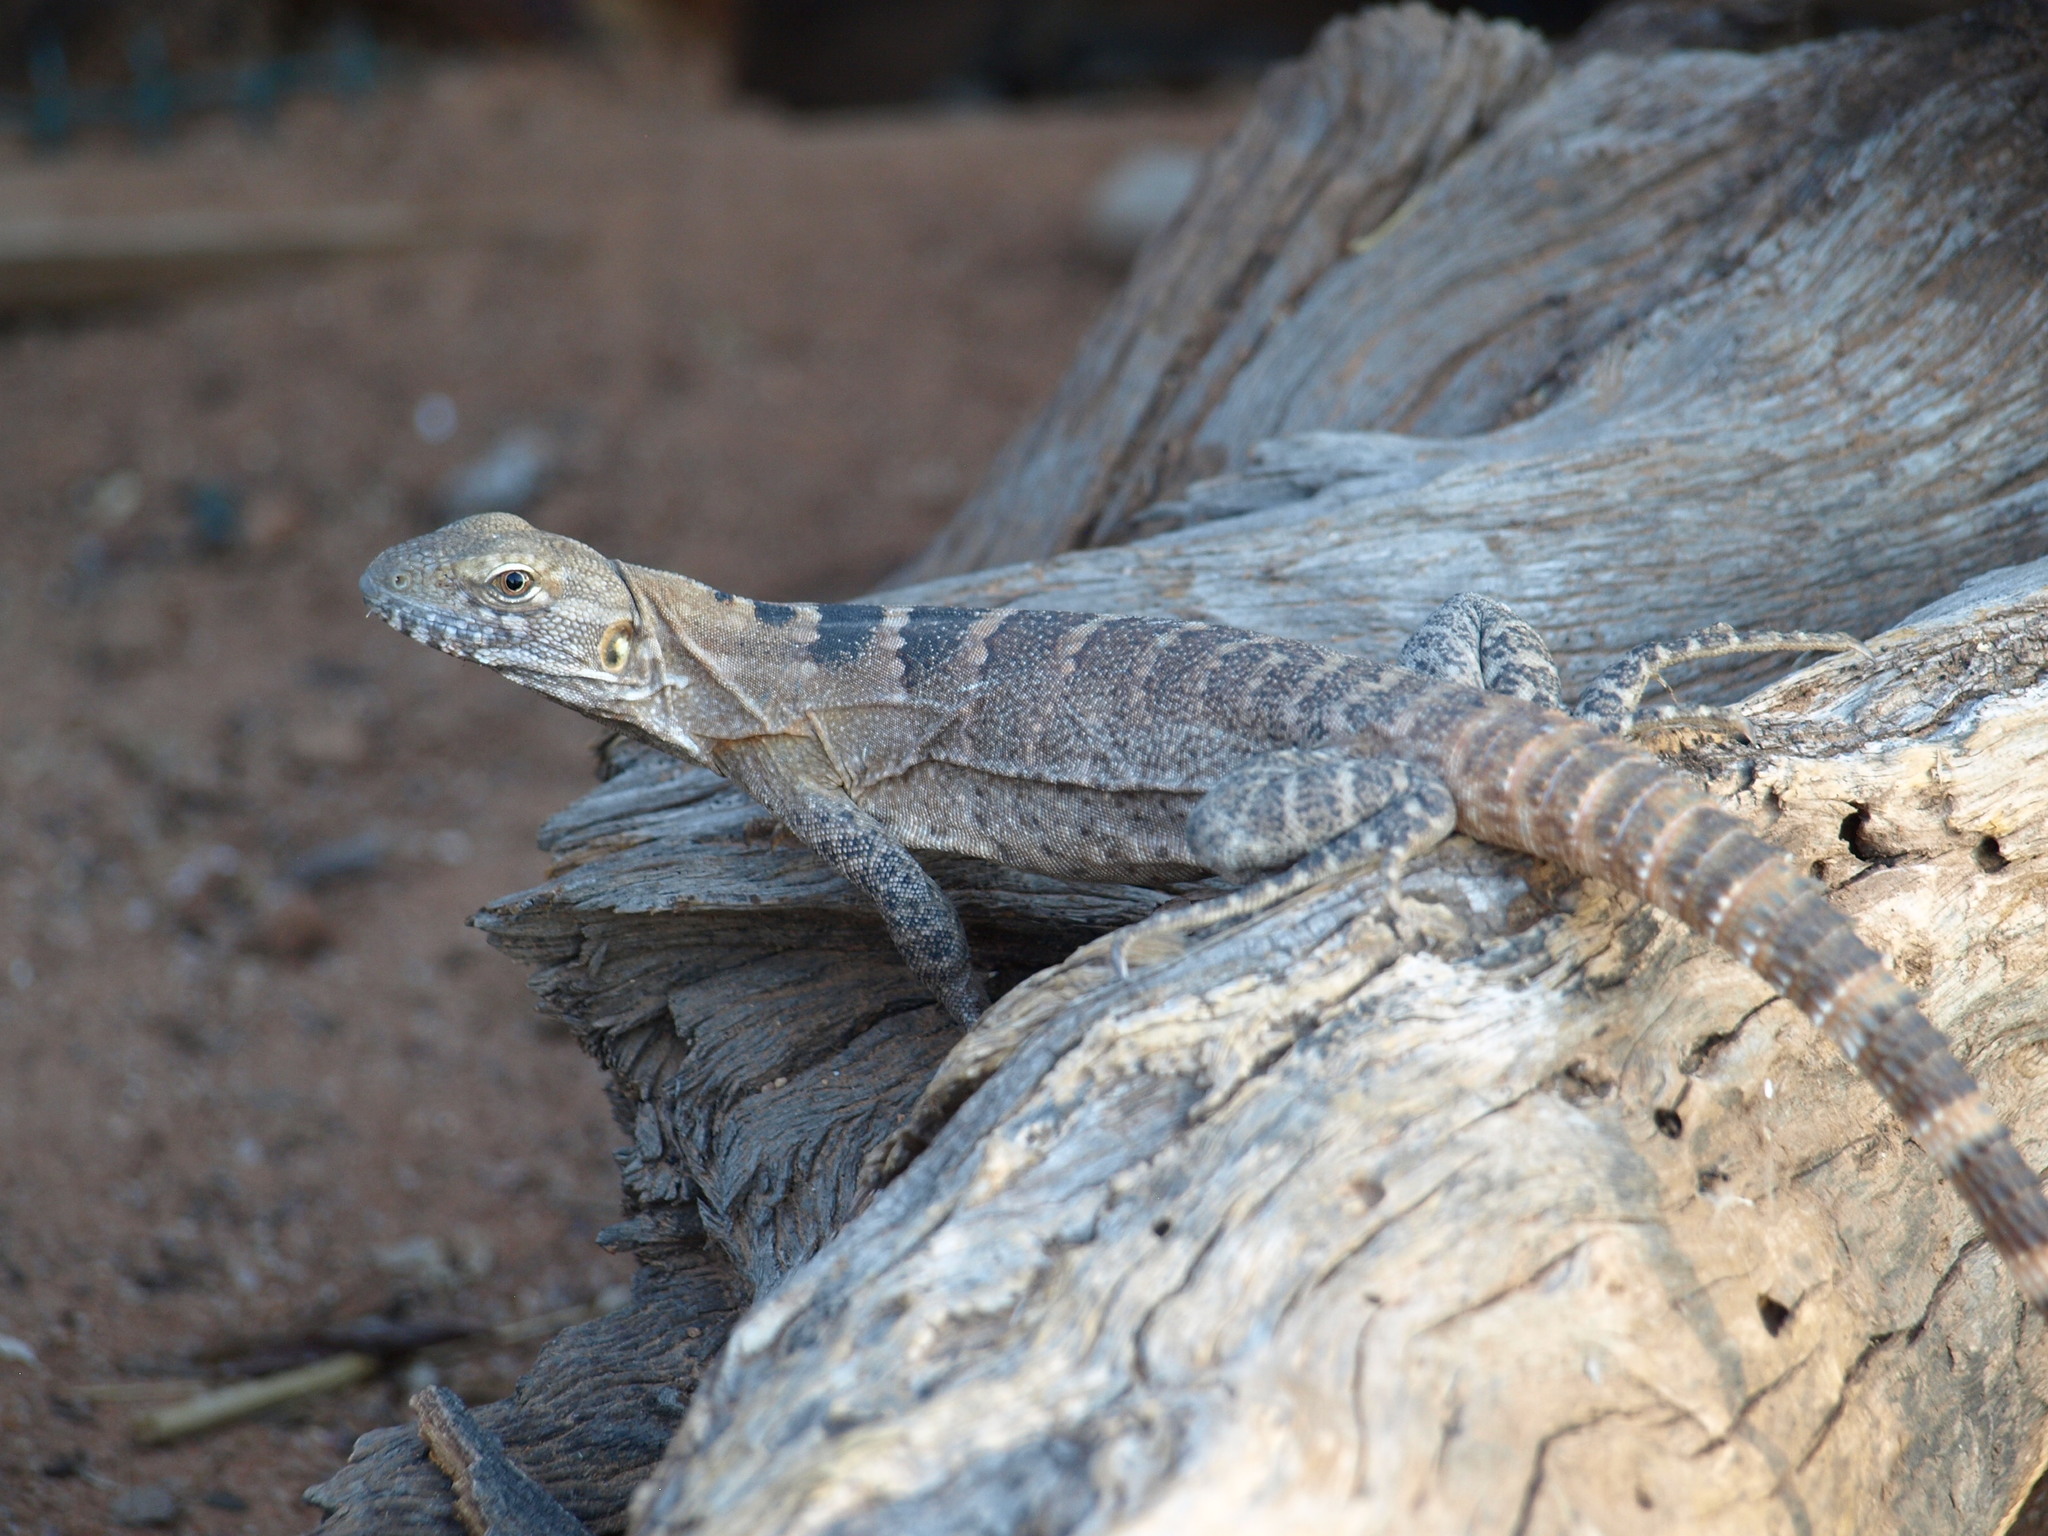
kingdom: Animalia
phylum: Chordata
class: Squamata
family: Iguanidae
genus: Ctenosaura
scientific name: Ctenosaura macrolopha
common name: Cape spinytail iguana
